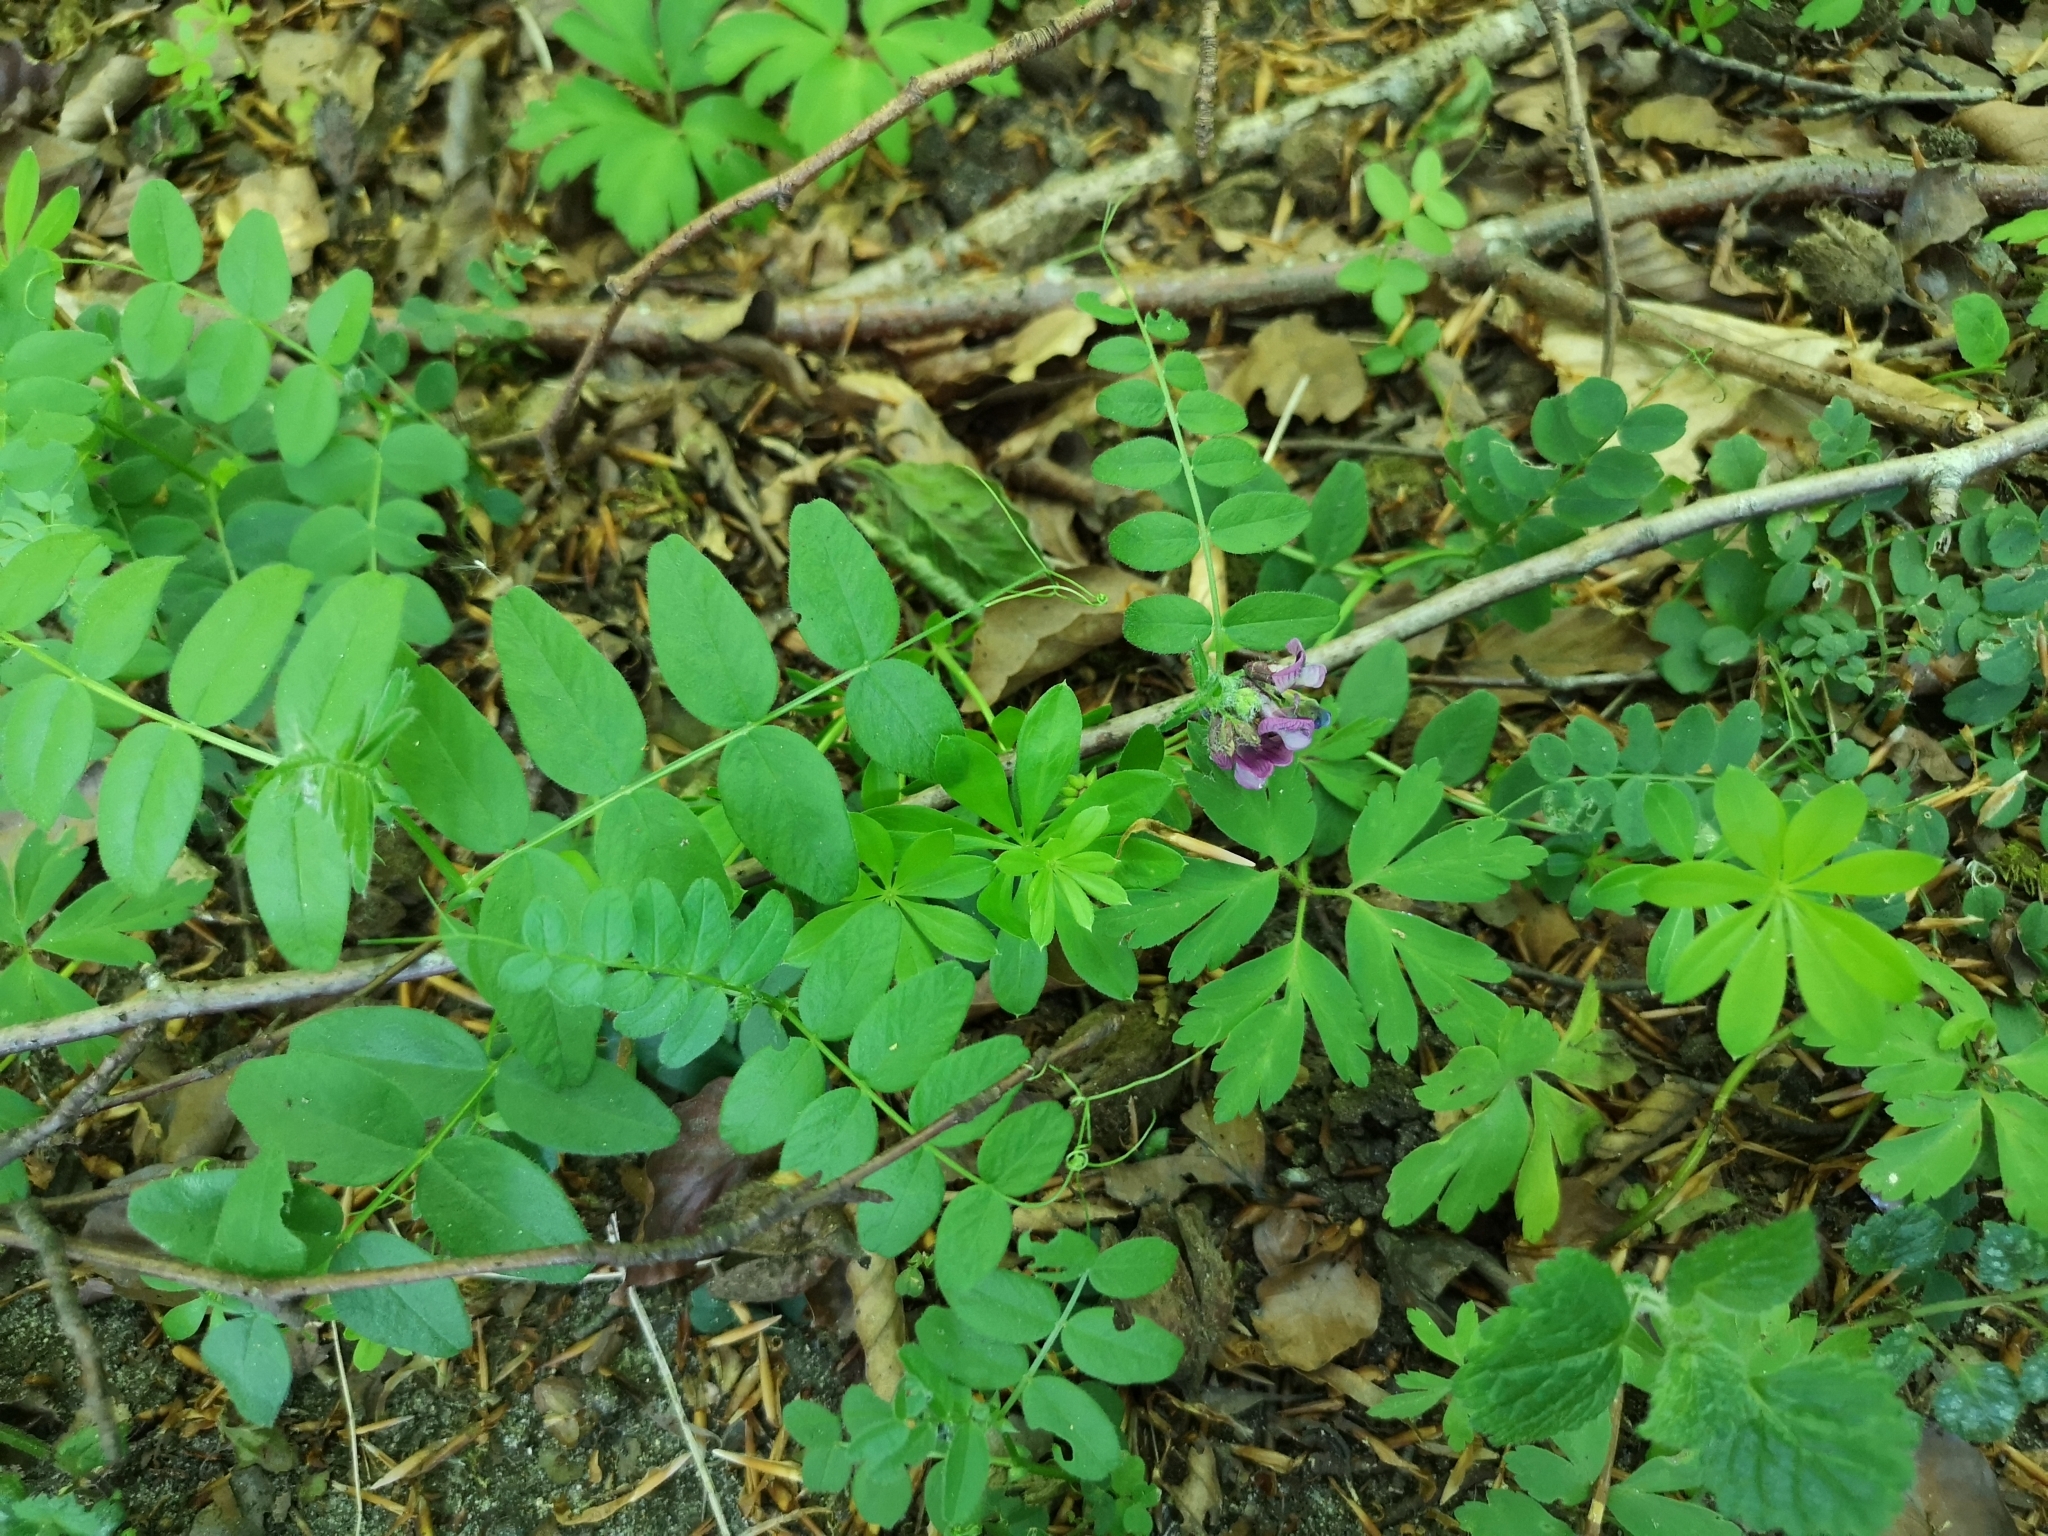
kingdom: Plantae
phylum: Tracheophyta
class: Magnoliopsida
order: Fabales
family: Fabaceae
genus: Vicia
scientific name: Vicia sepium
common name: Bush vetch
